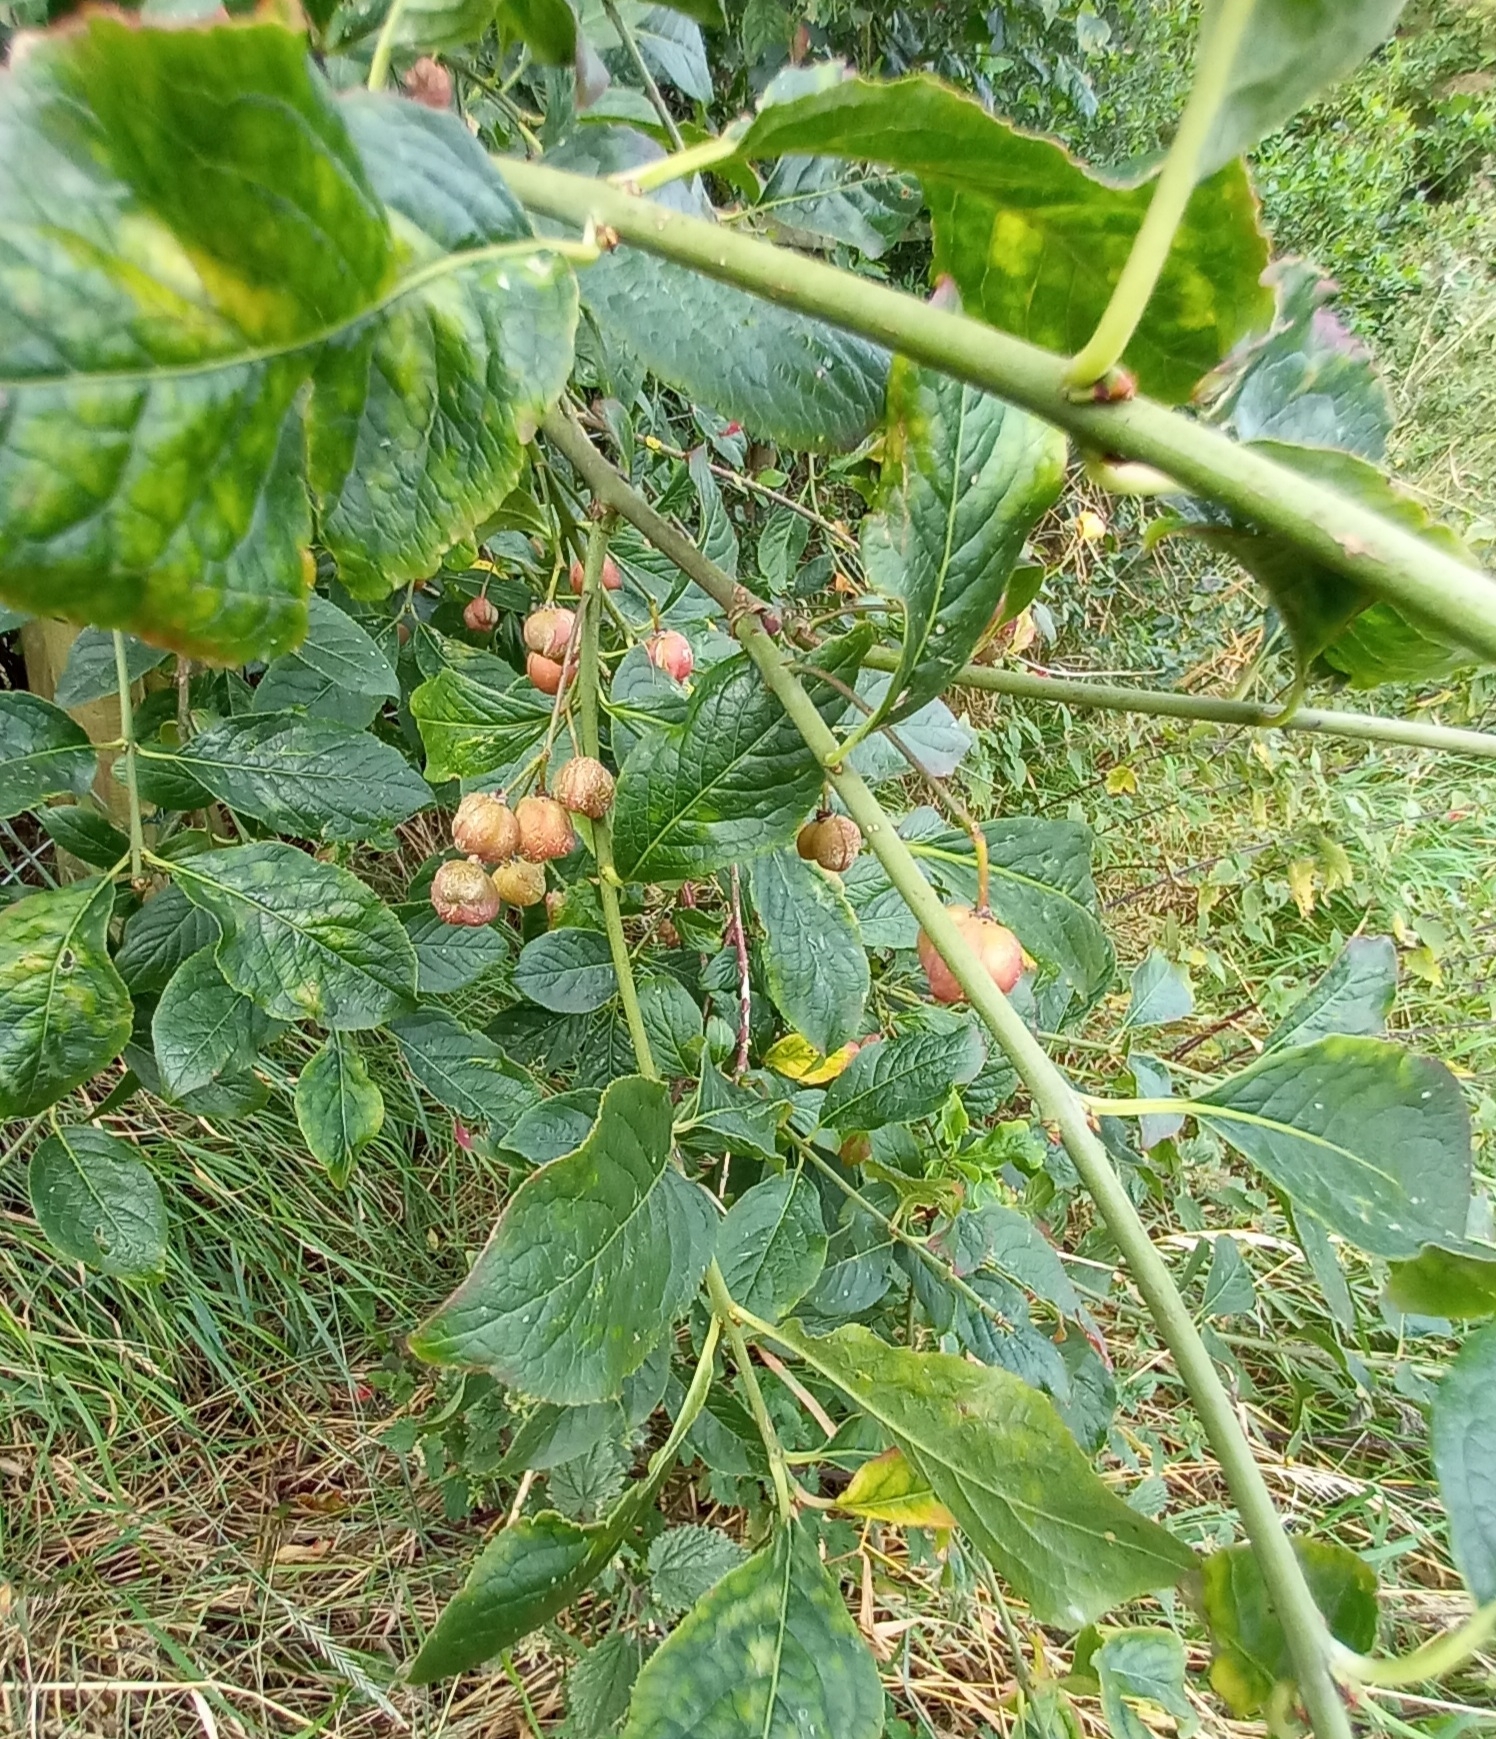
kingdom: Plantae
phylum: Tracheophyta
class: Magnoliopsida
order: Celastrales
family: Celastraceae
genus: Euonymus
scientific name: Euonymus europaeus
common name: Spindle
